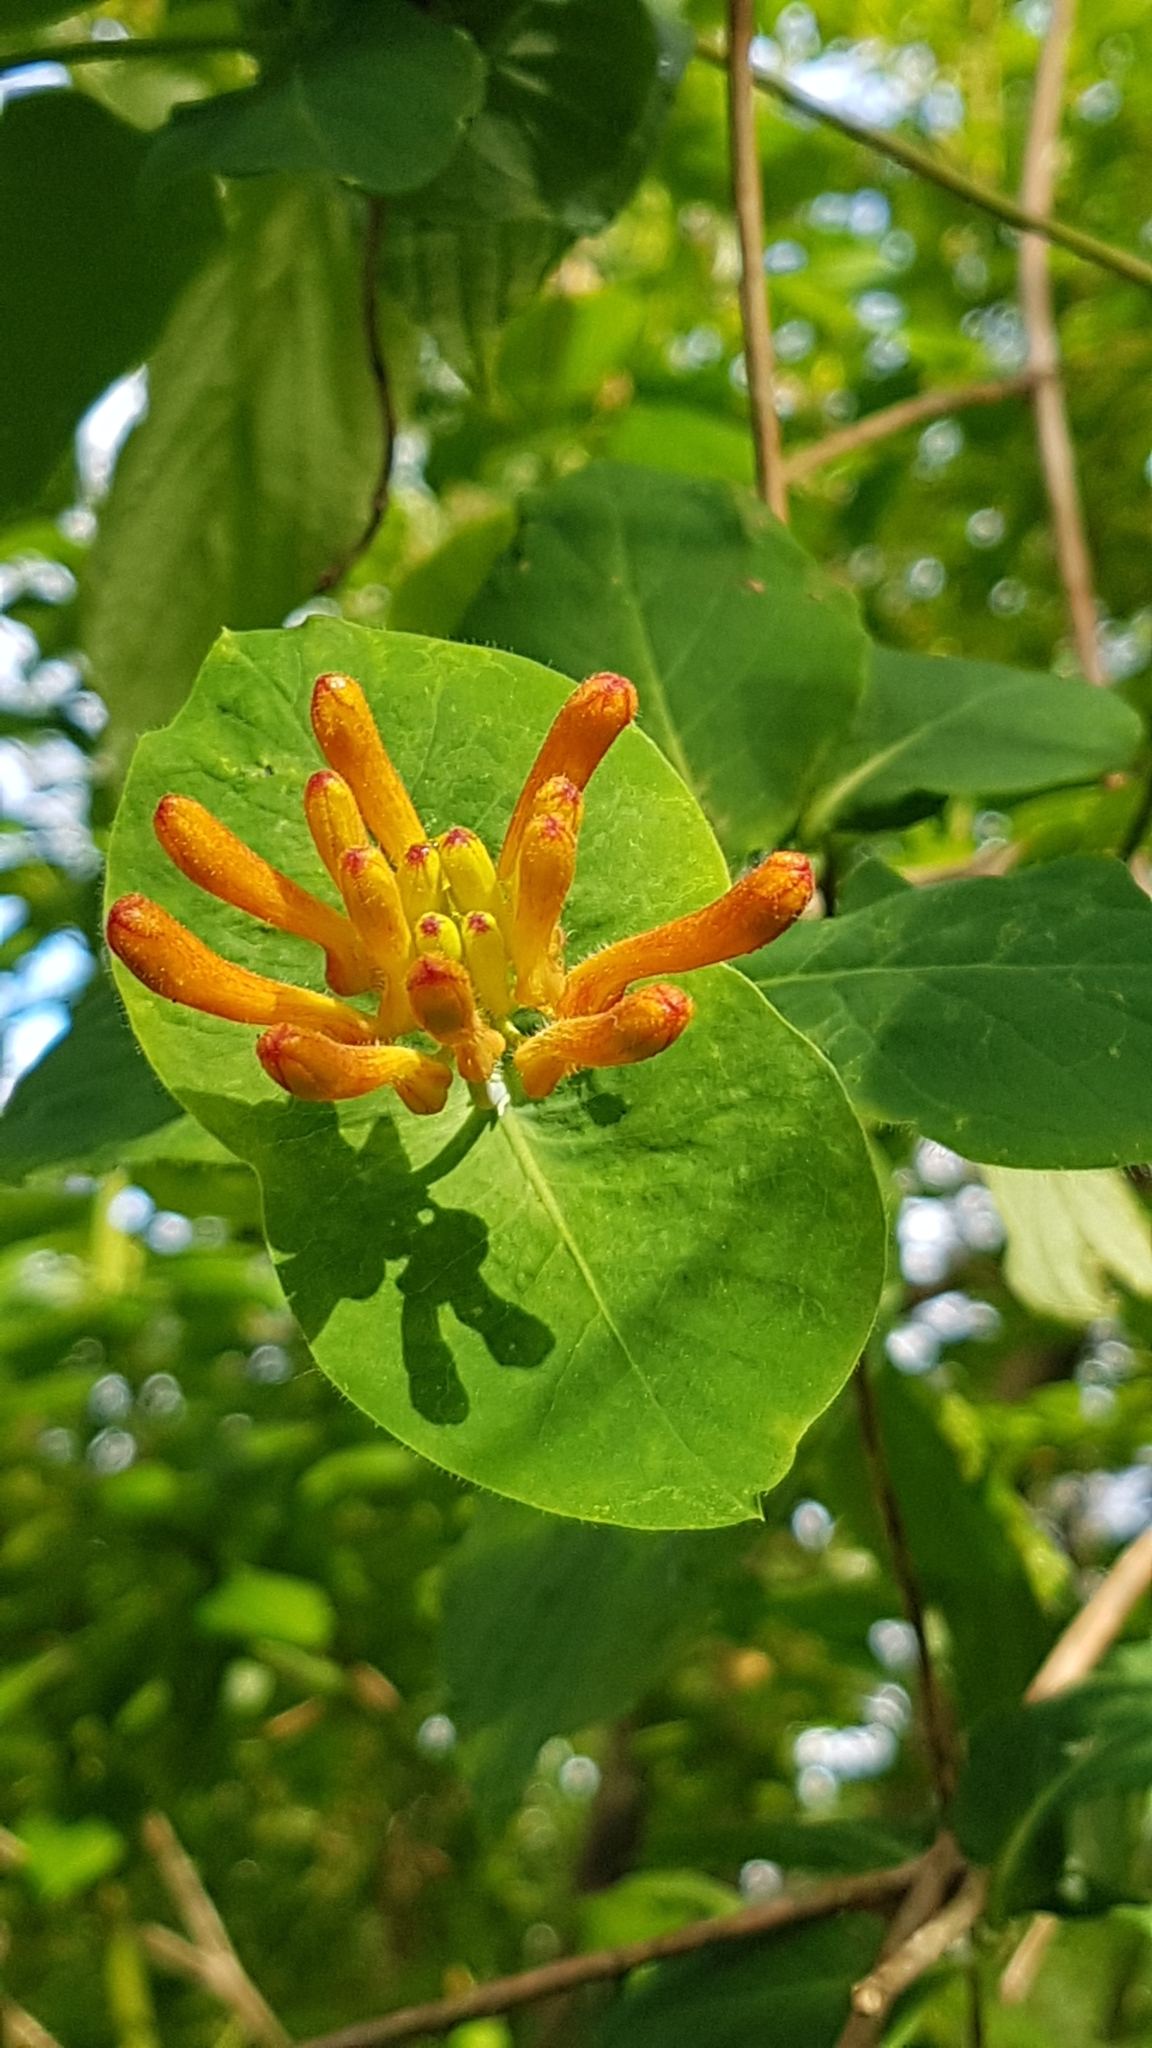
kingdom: Plantae
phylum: Tracheophyta
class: Magnoliopsida
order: Dipsacales
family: Caprifoliaceae
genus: Lonicera
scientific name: Lonicera ciliosa
